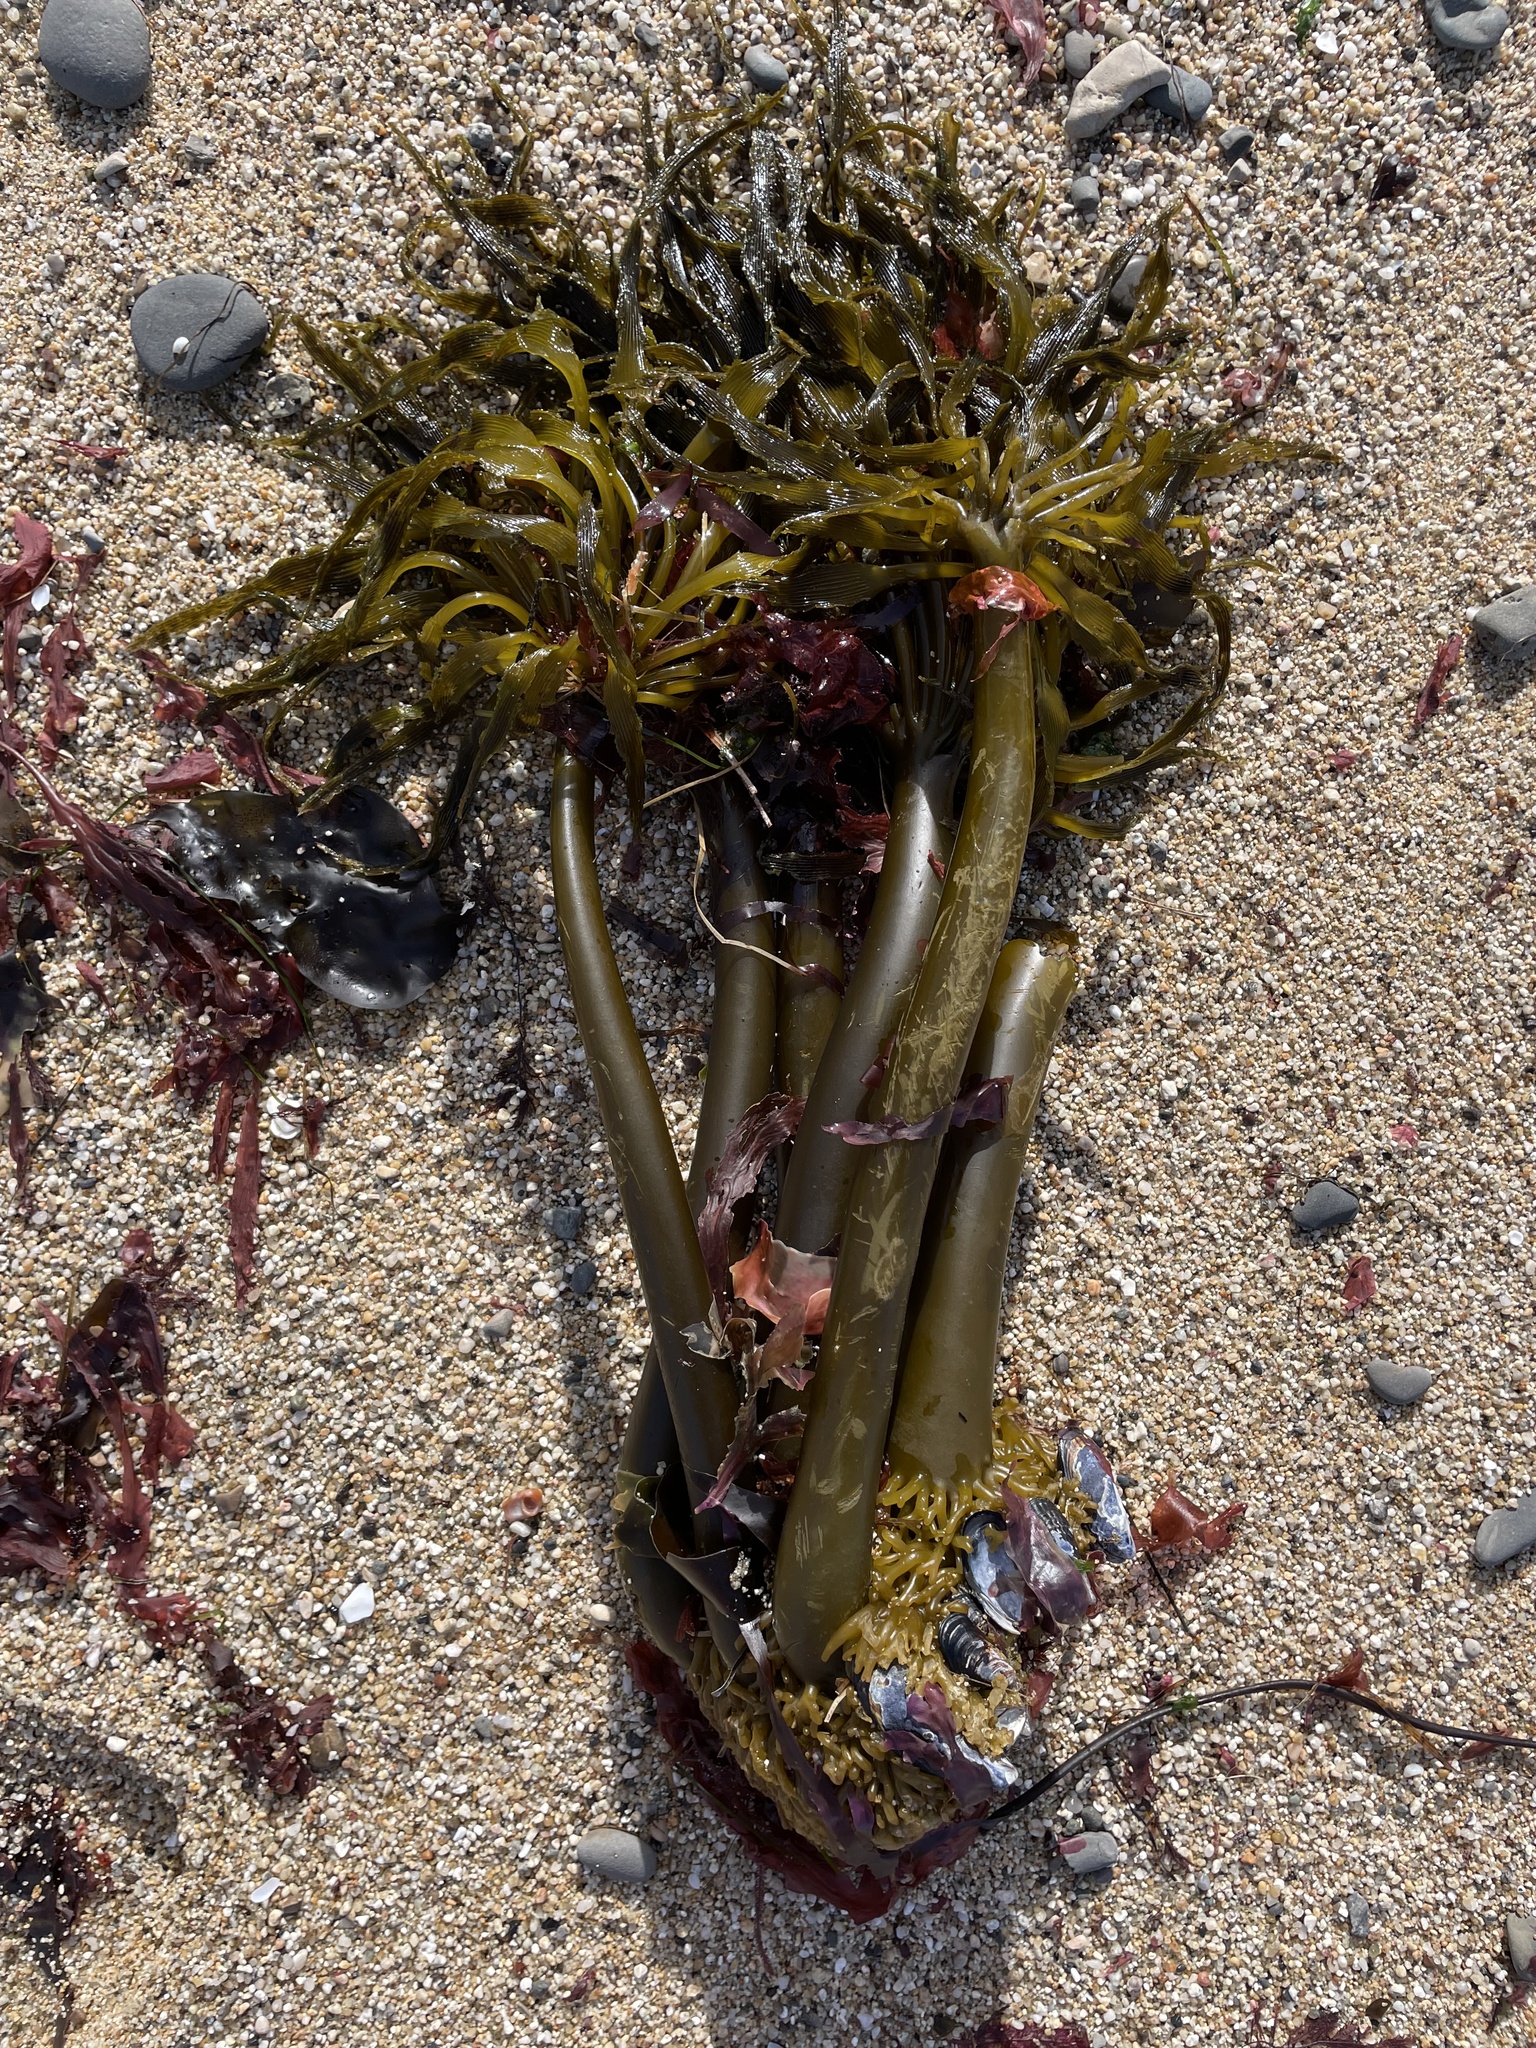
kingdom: Chromista
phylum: Ochrophyta
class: Phaeophyceae
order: Laminariales
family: Laminariaceae
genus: Postelsia
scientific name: Postelsia palmiformis
